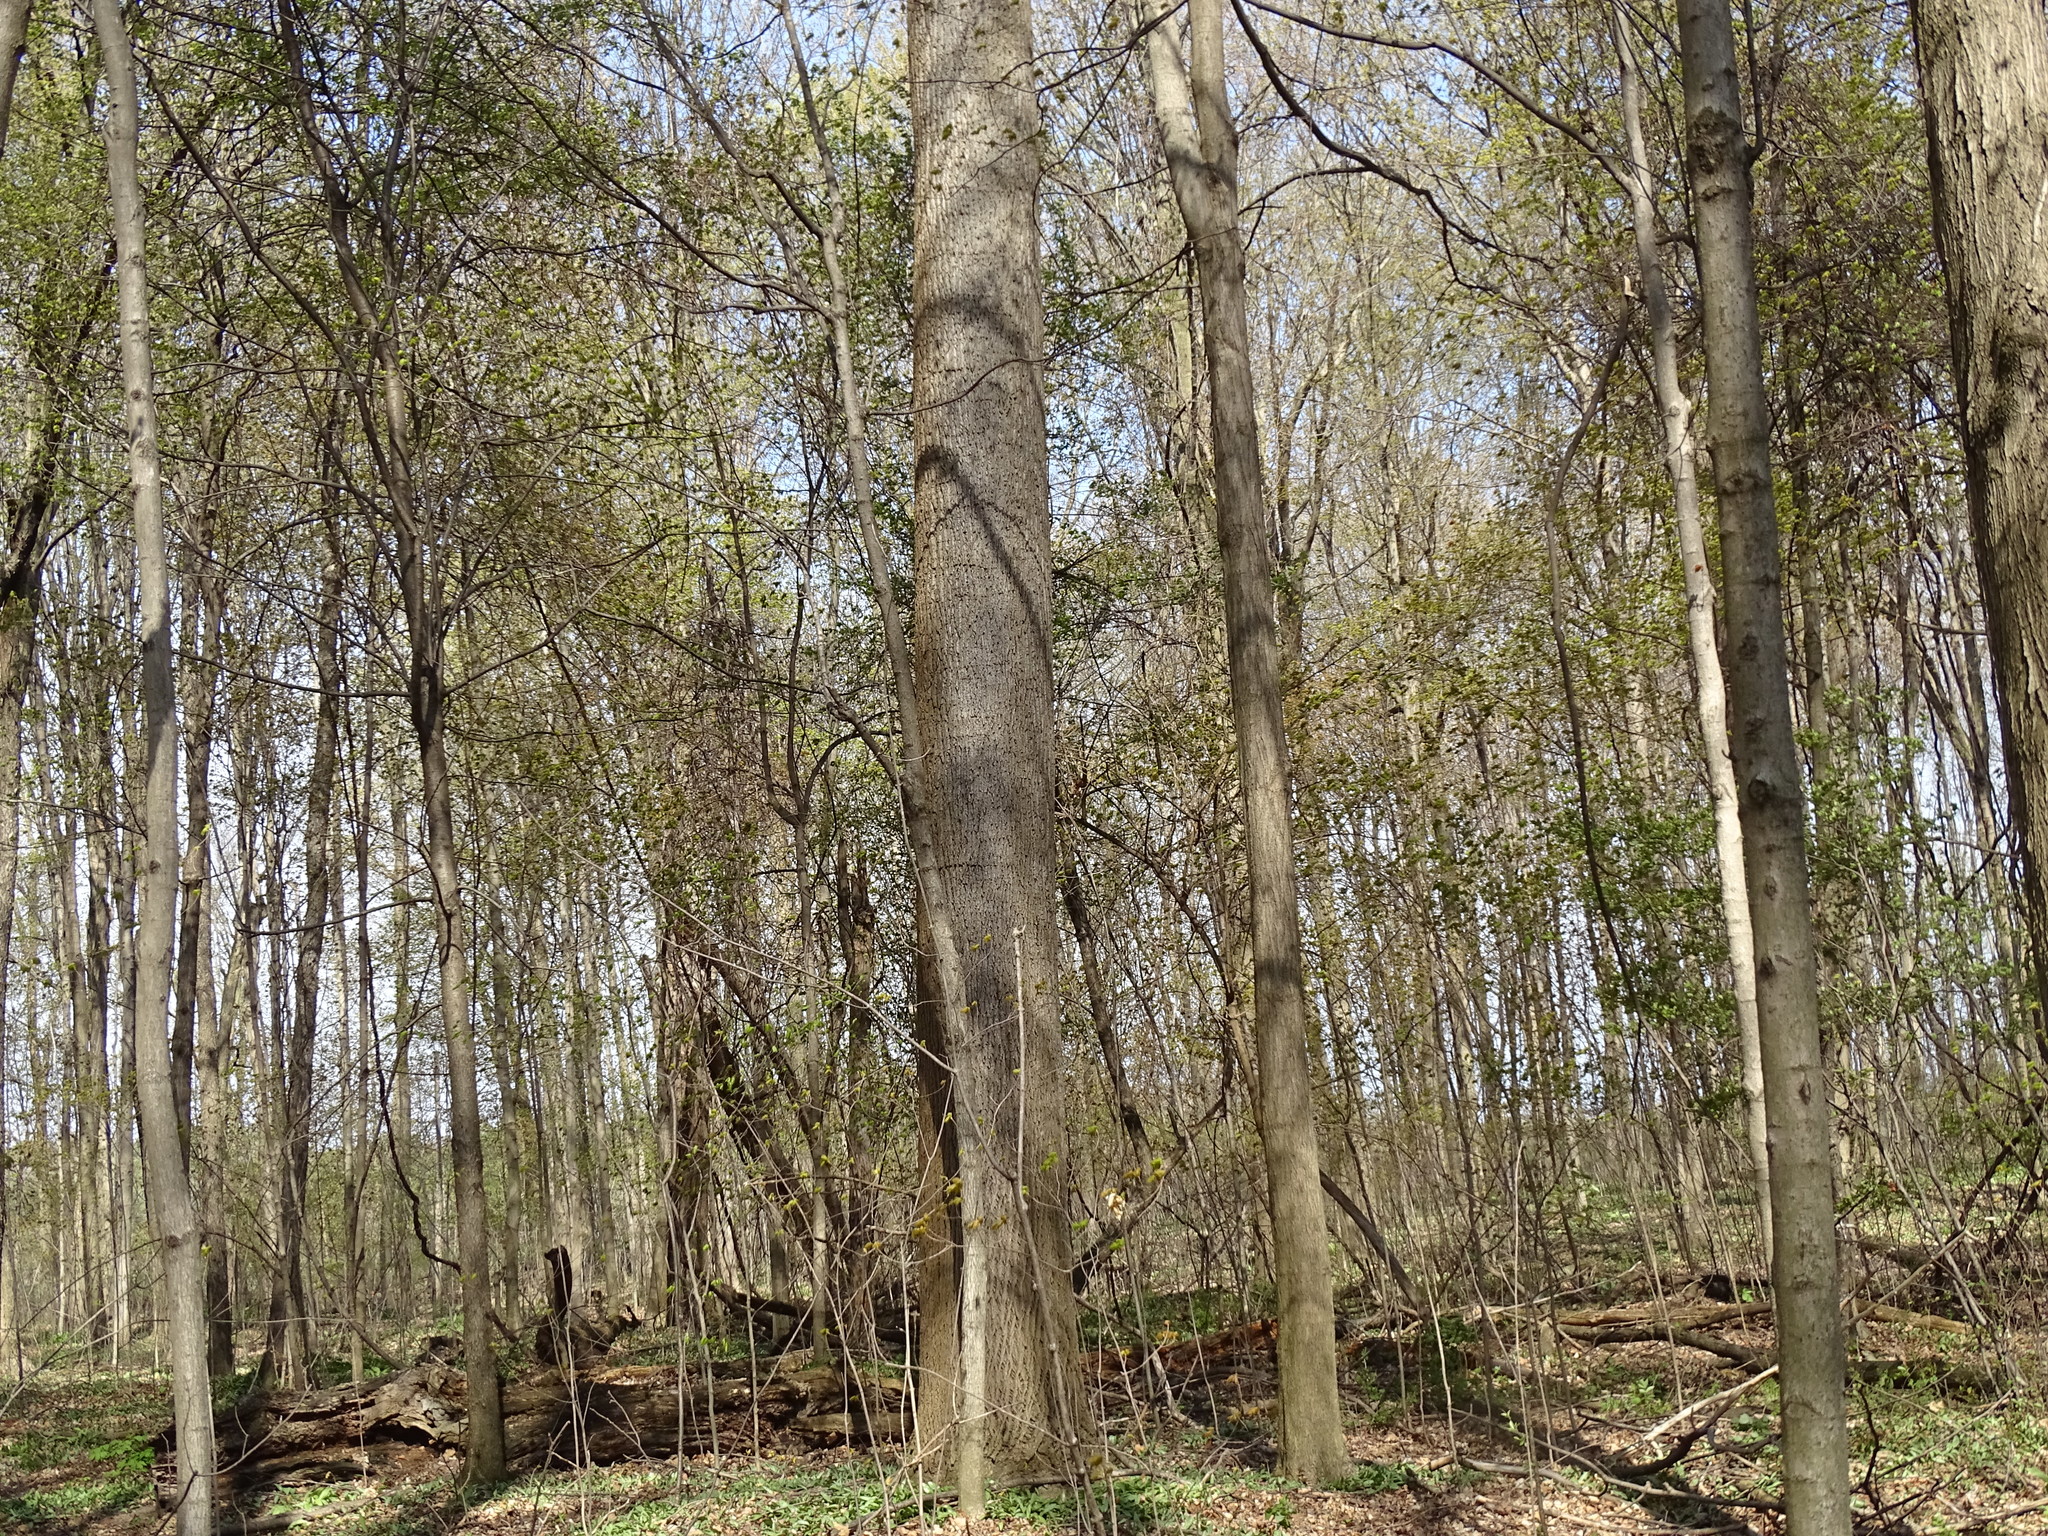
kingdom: Plantae
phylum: Tracheophyta
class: Magnoliopsida
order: Magnoliales
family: Magnoliaceae
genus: Liriodendron
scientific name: Liriodendron tulipifera
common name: Tulip tree
